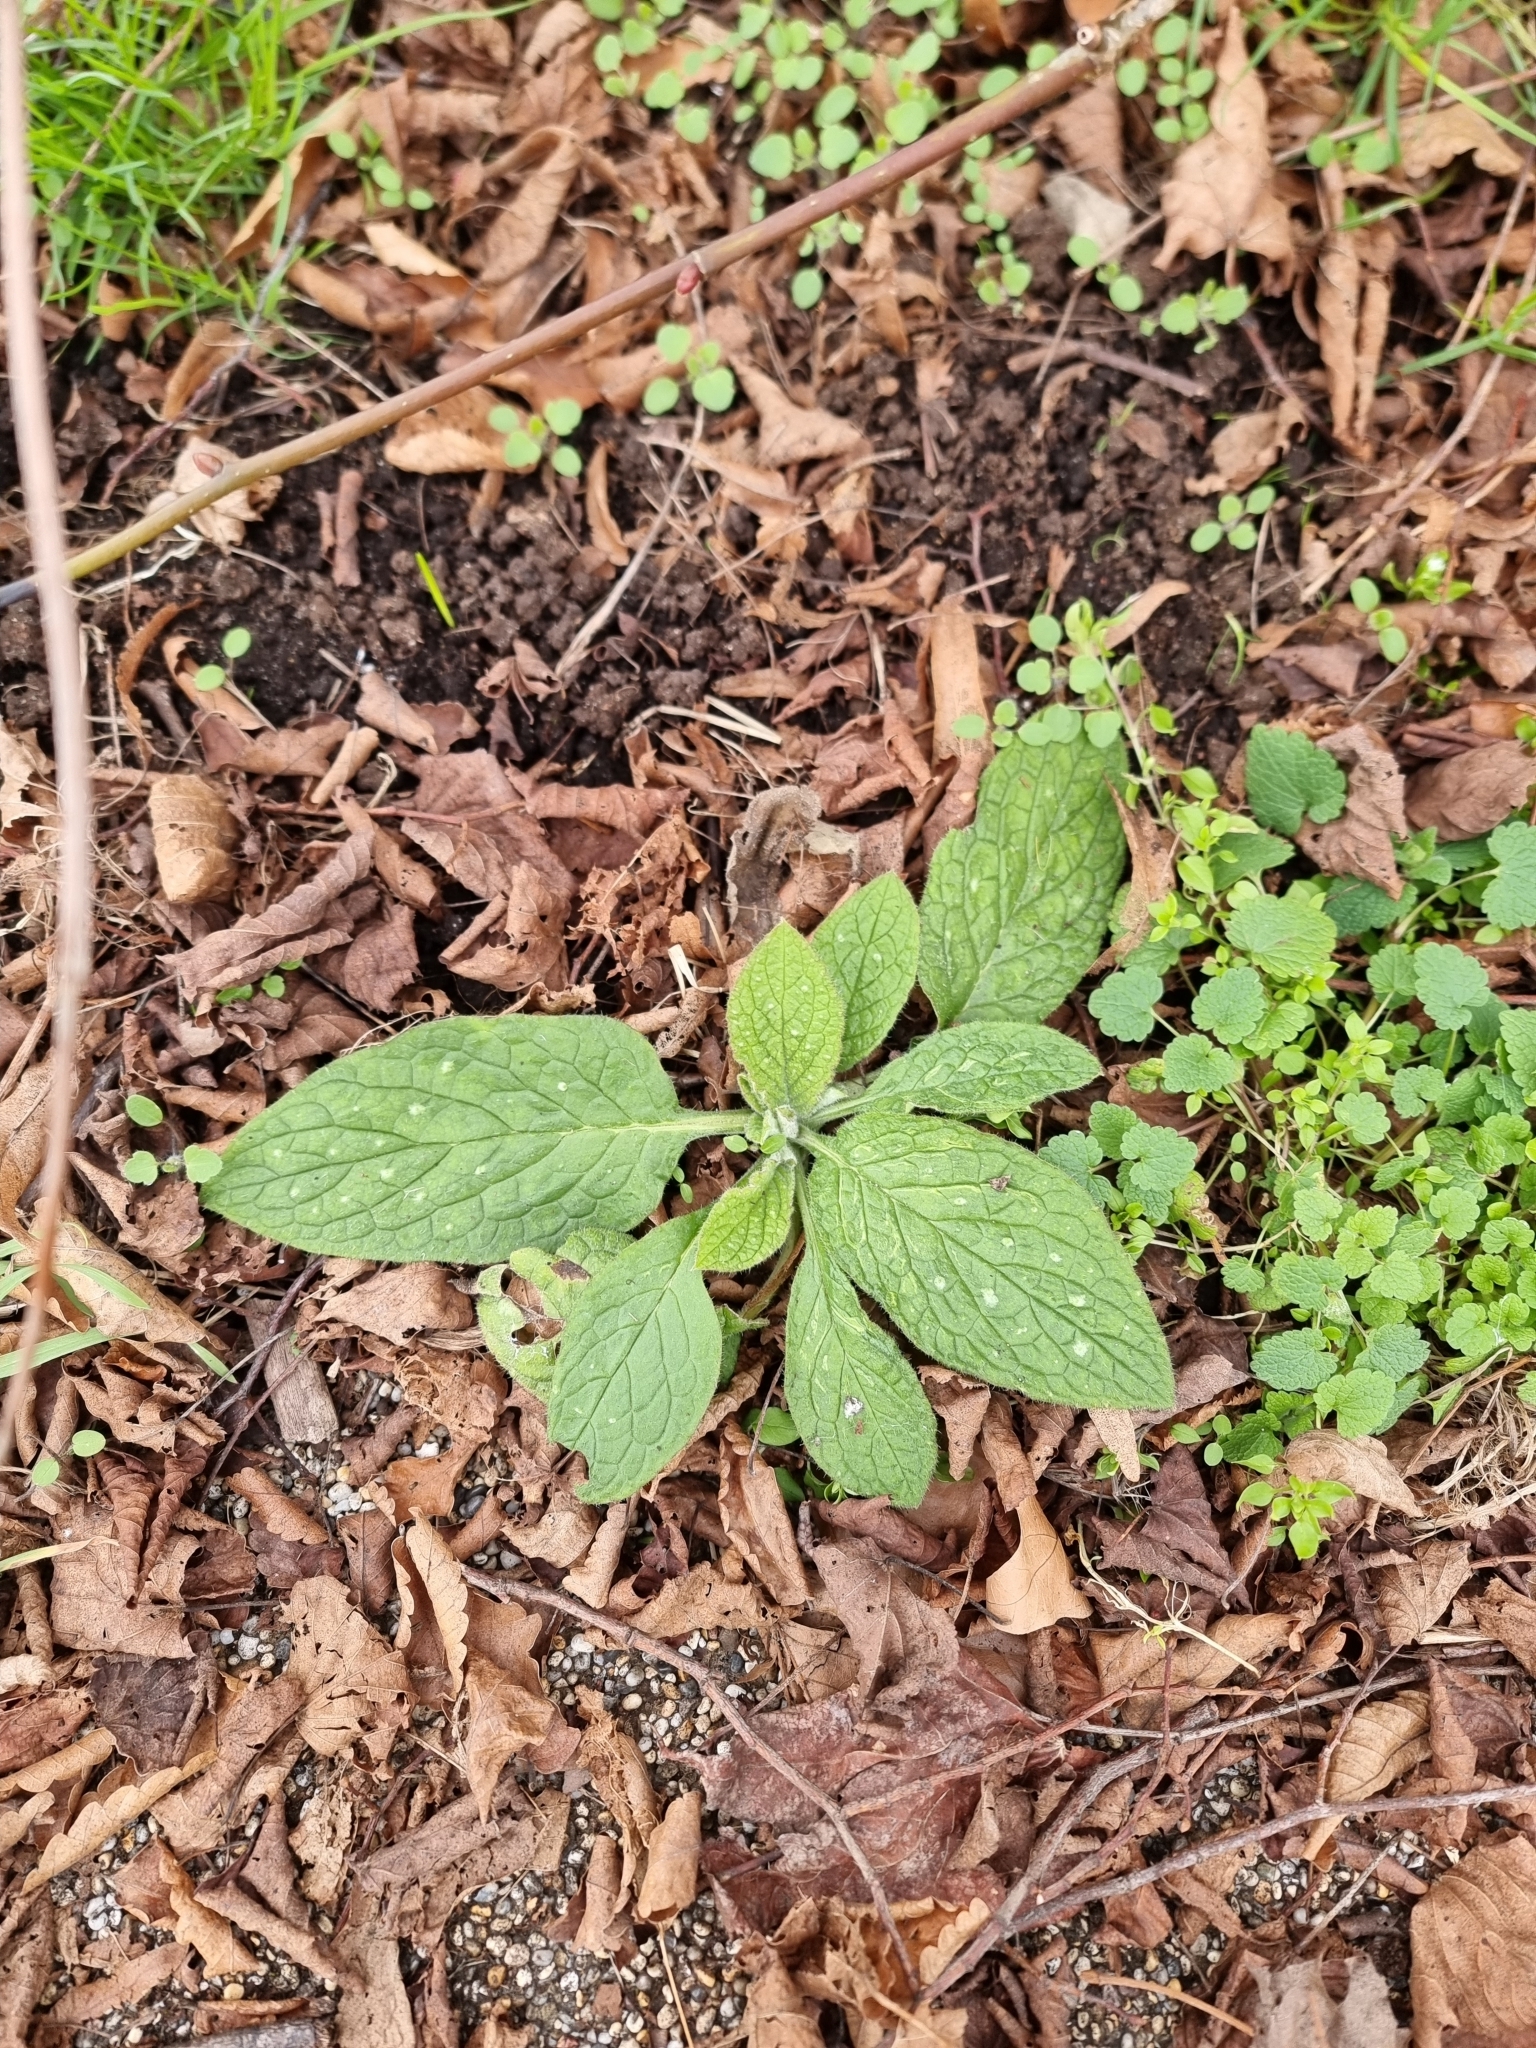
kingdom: Plantae
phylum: Tracheophyta
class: Magnoliopsida
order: Boraginales
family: Boraginaceae
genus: Pentaglottis
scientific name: Pentaglottis sempervirens
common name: Green alkanet
